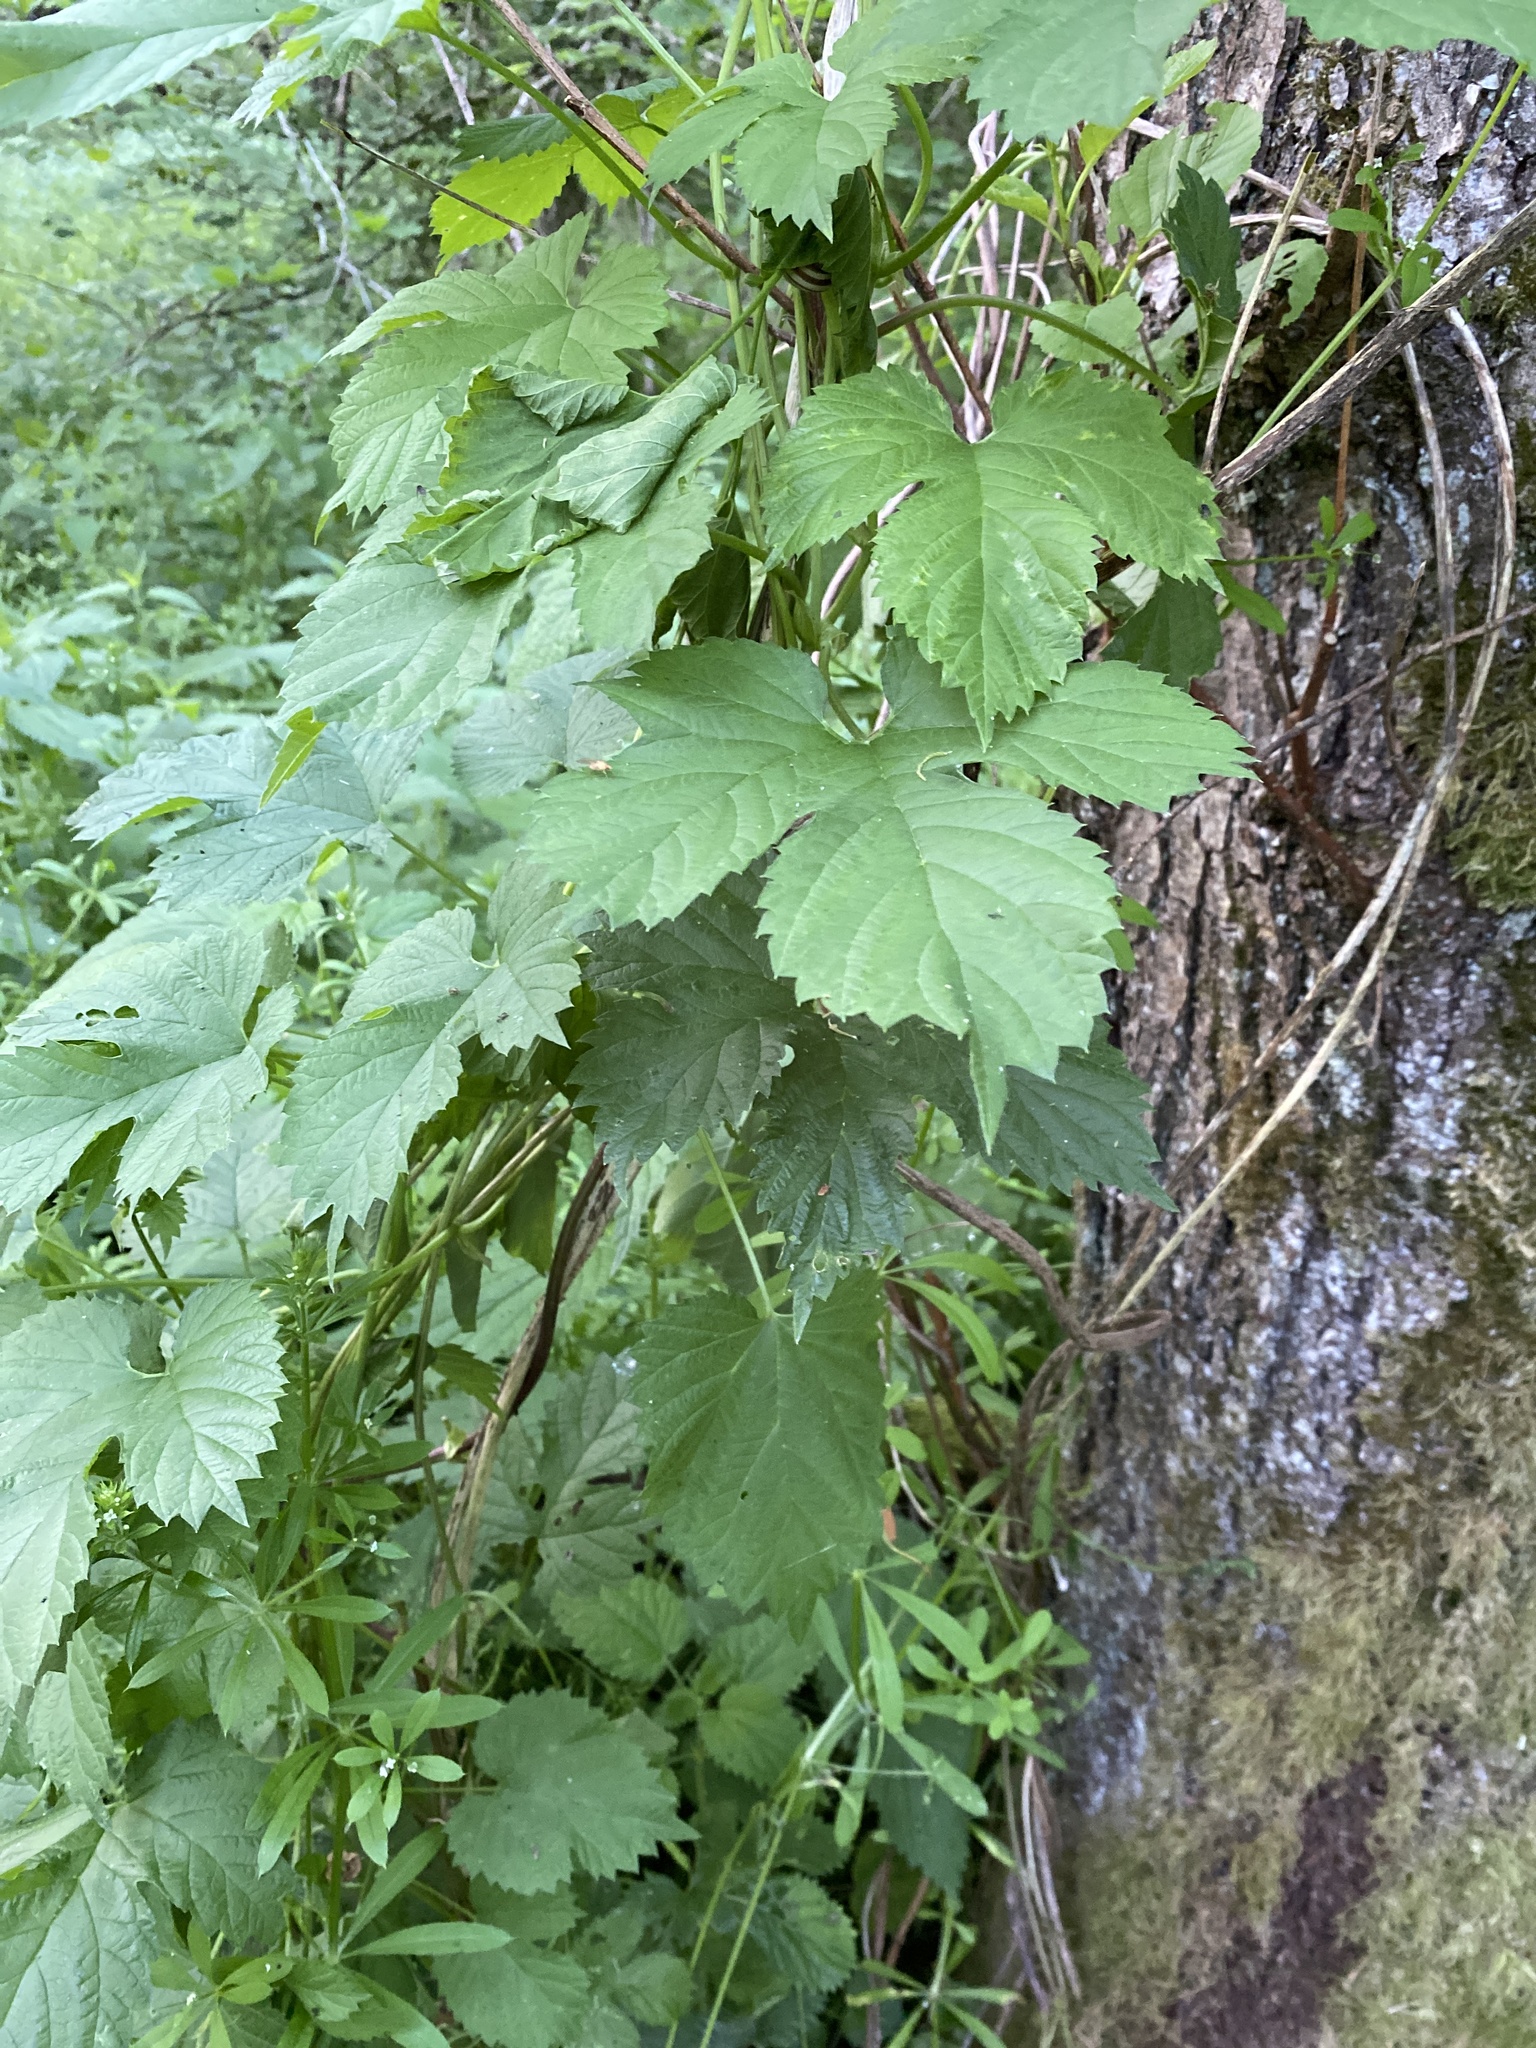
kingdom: Plantae
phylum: Tracheophyta
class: Magnoliopsida
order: Rosales
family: Cannabaceae
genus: Humulus
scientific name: Humulus lupulus
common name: Hop
